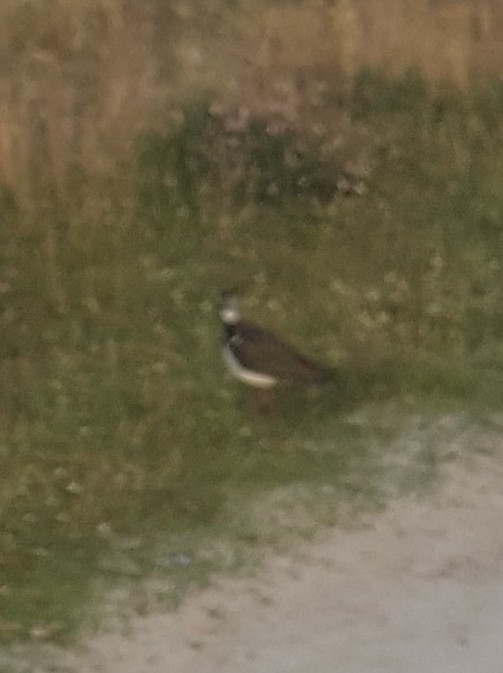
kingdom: Animalia
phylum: Chordata
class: Aves
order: Charadriiformes
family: Charadriidae
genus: Vanellus
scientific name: Vanellus vanellus
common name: Northern lapwing
